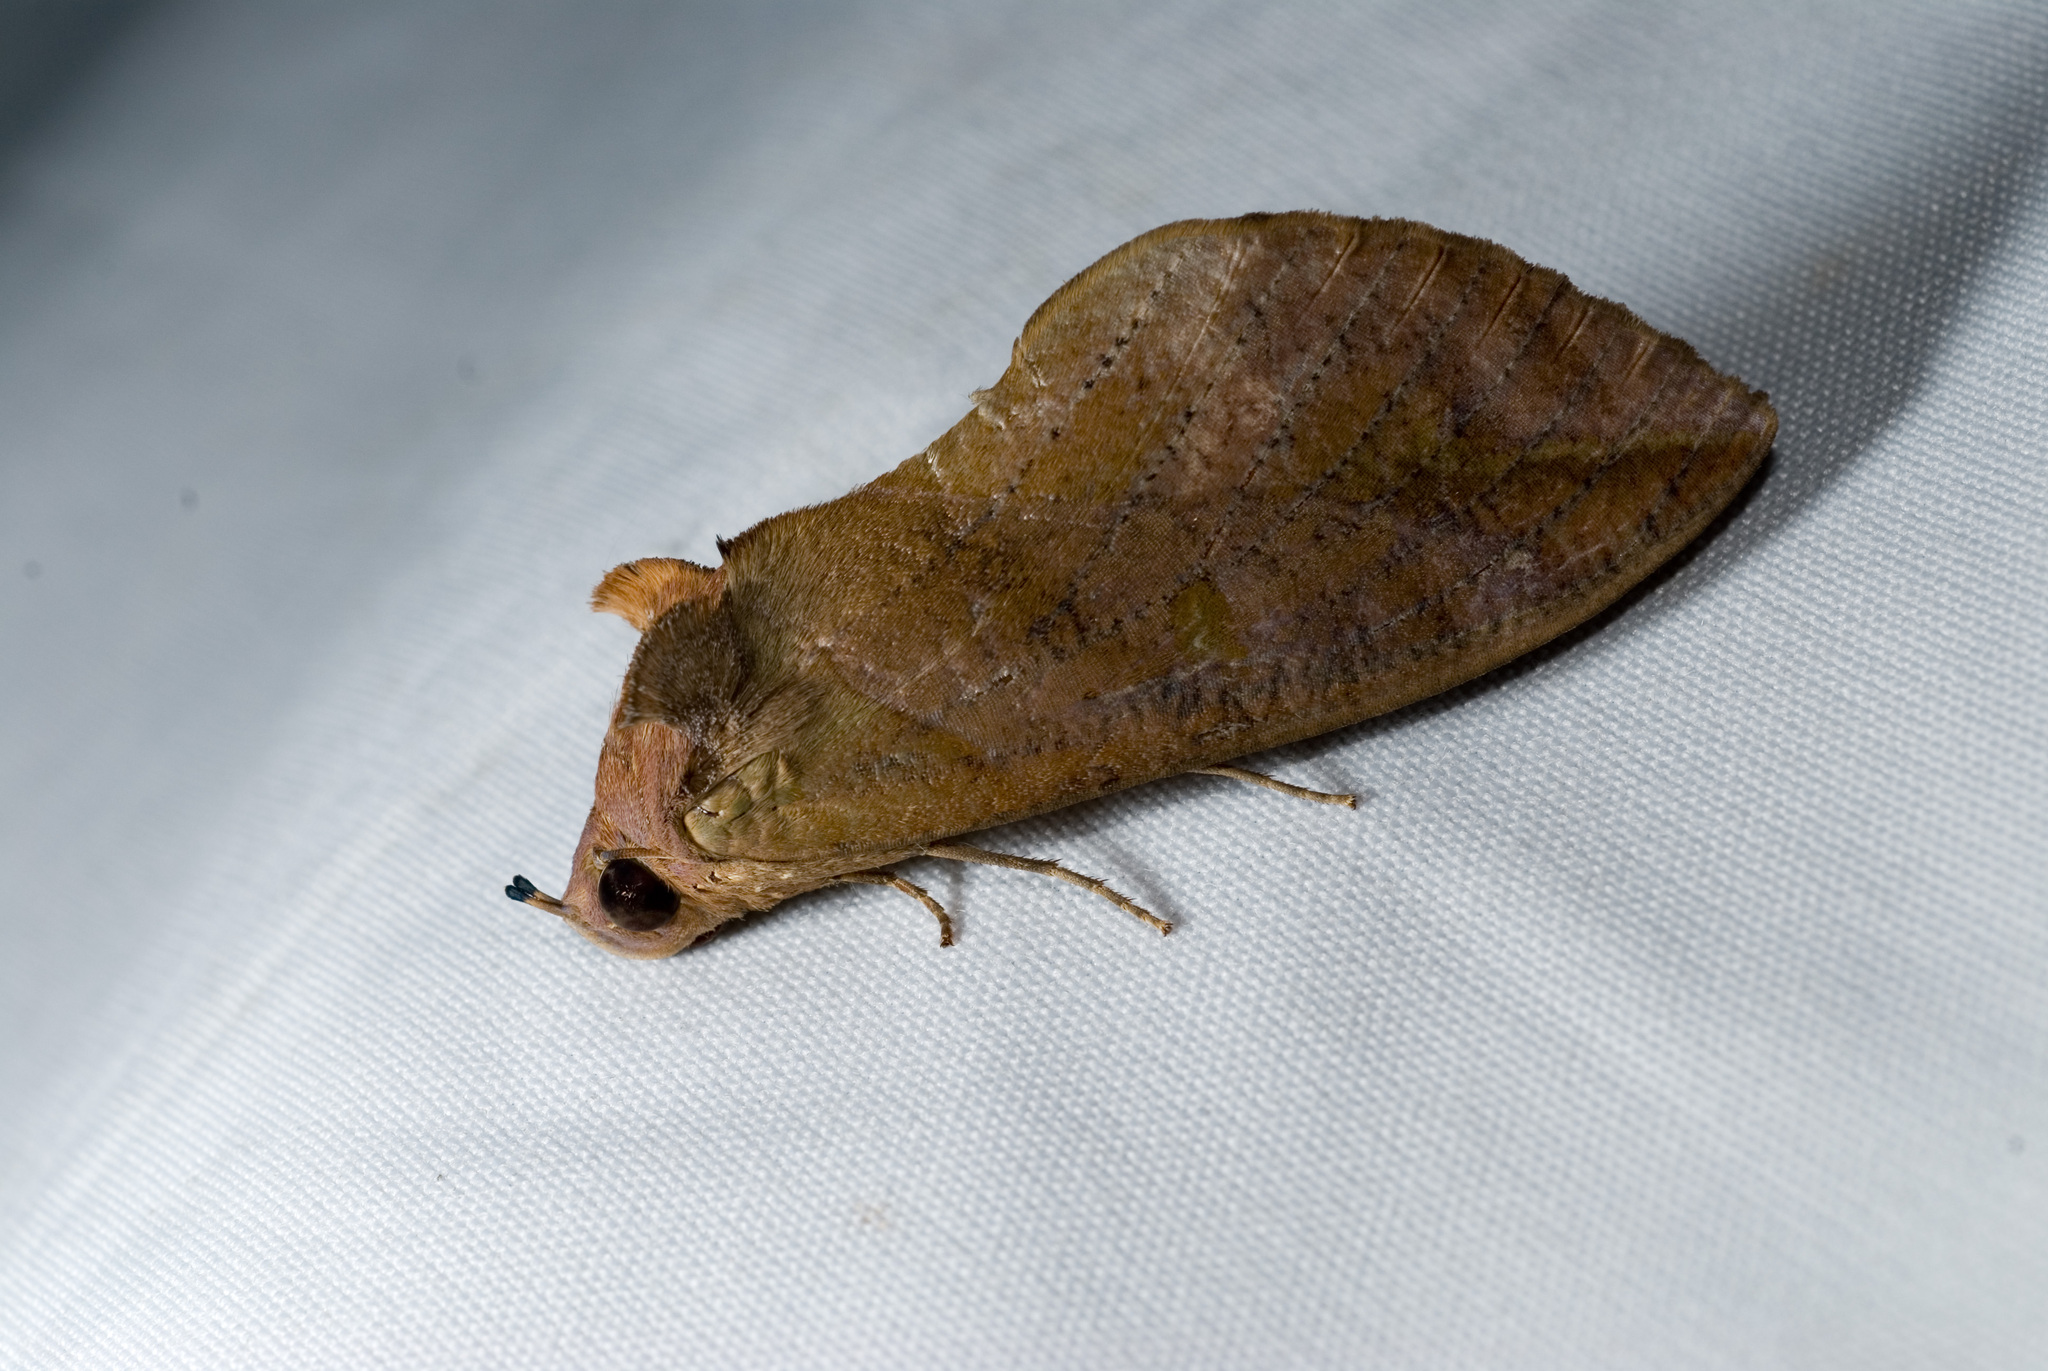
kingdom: Animalia
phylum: Arthropoda
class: Insecta
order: Lepidoptera
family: Erebidae
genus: Eudocima
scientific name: Eudocima phalonia
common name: Wasp
